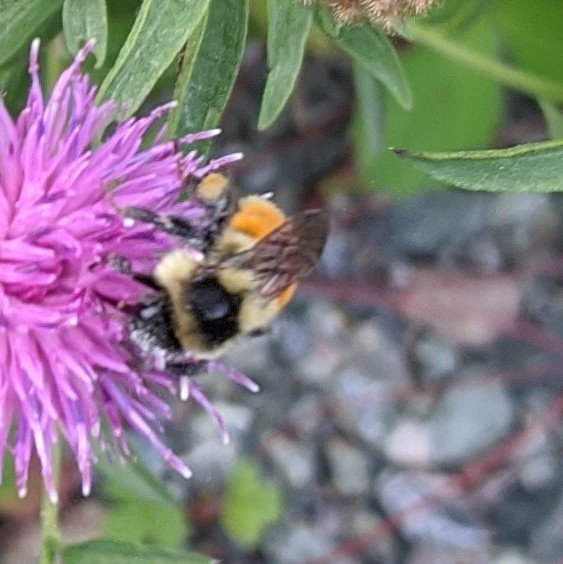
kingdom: Animalia
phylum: Arthropoda
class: Insecta
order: Hymenoptera
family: Apidae
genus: Bombus
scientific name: Bombus ternarius
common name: Tri-colored bumble bee
